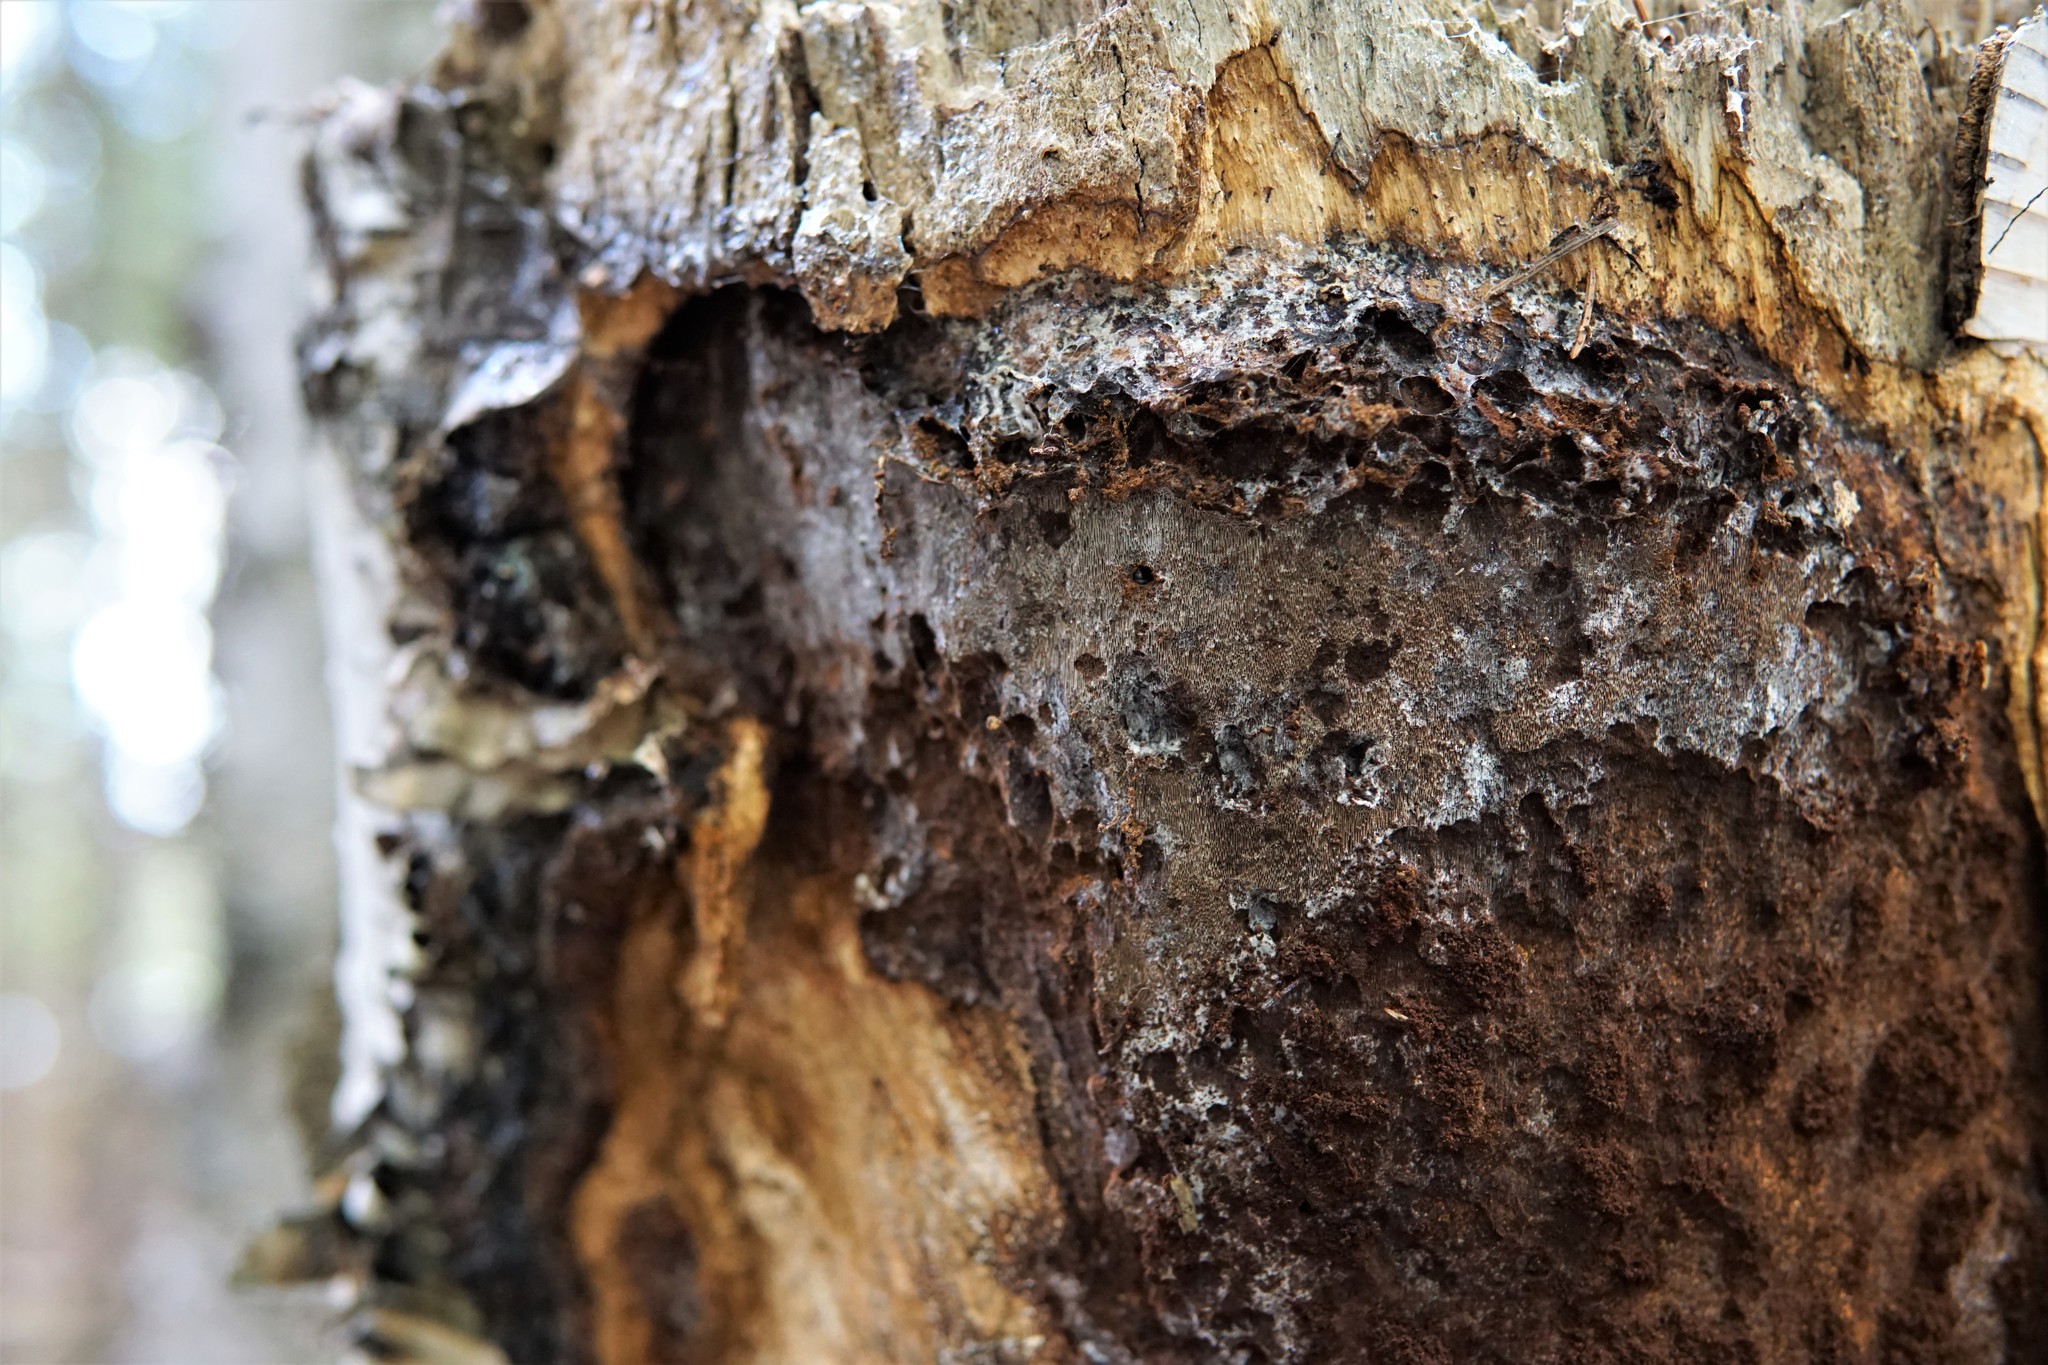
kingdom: Fungi
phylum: Basidiomycota
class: Agaricomycetes
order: Hymenochaetales
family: Hymenochaetaceae
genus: Inonotus
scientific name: Inonotus obliquus
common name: Chaga
